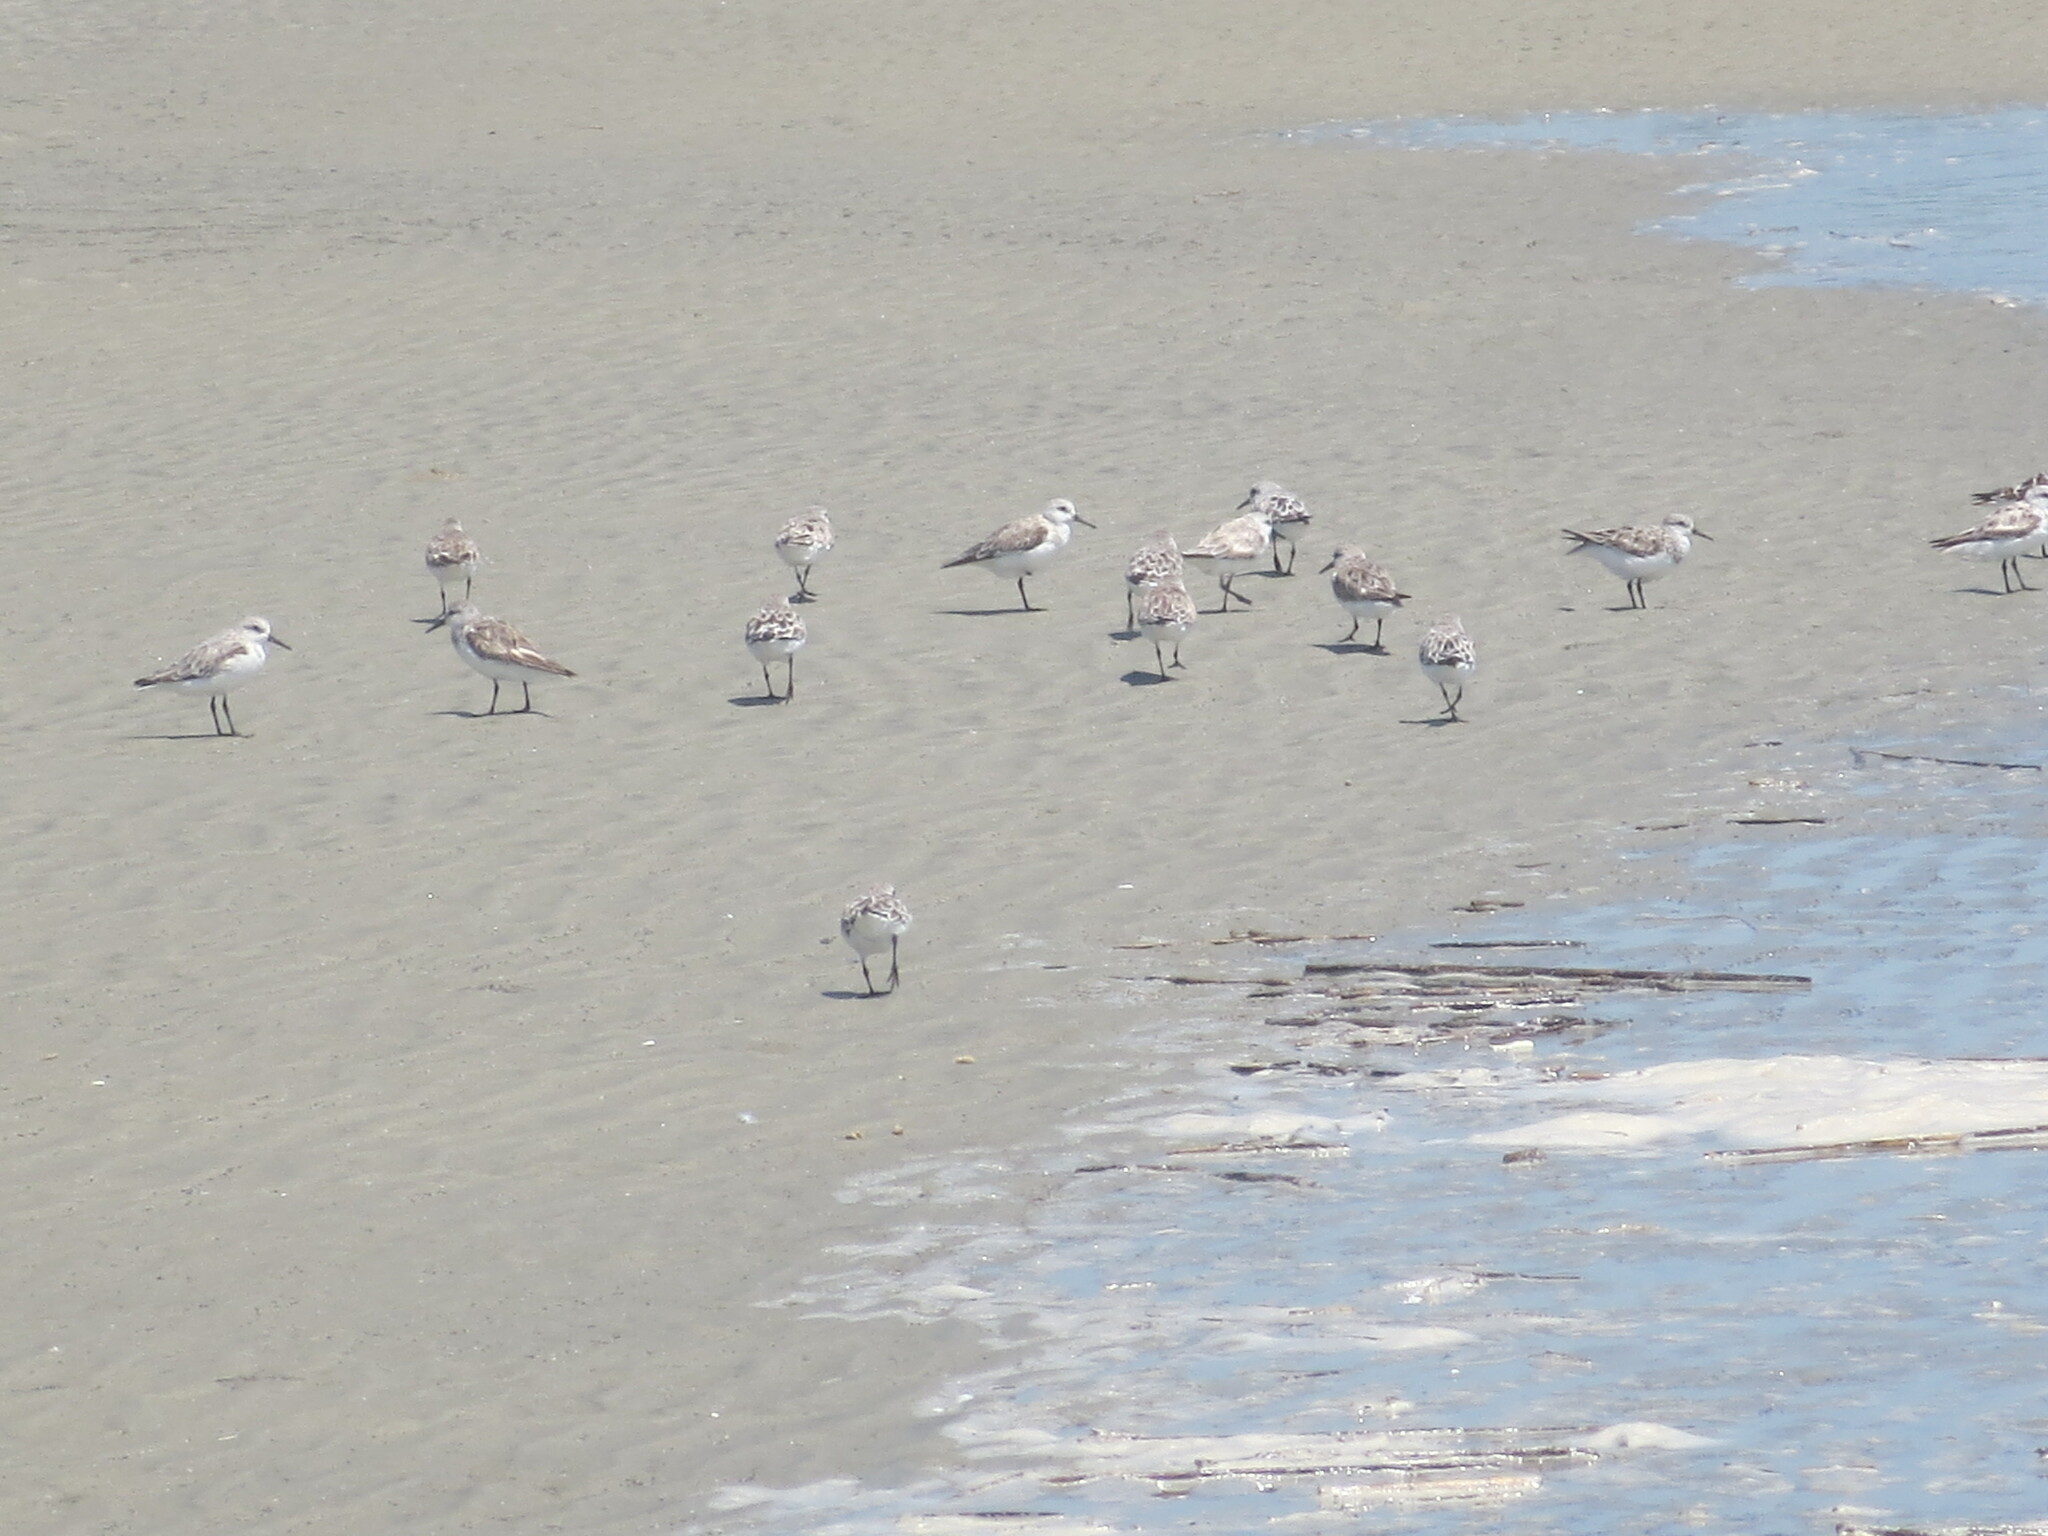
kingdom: Animalia
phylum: Chordata
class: Aves
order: Charadriiformes
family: Scolopacidae
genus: Calidris
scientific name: Calidris alba
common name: Sanderling
